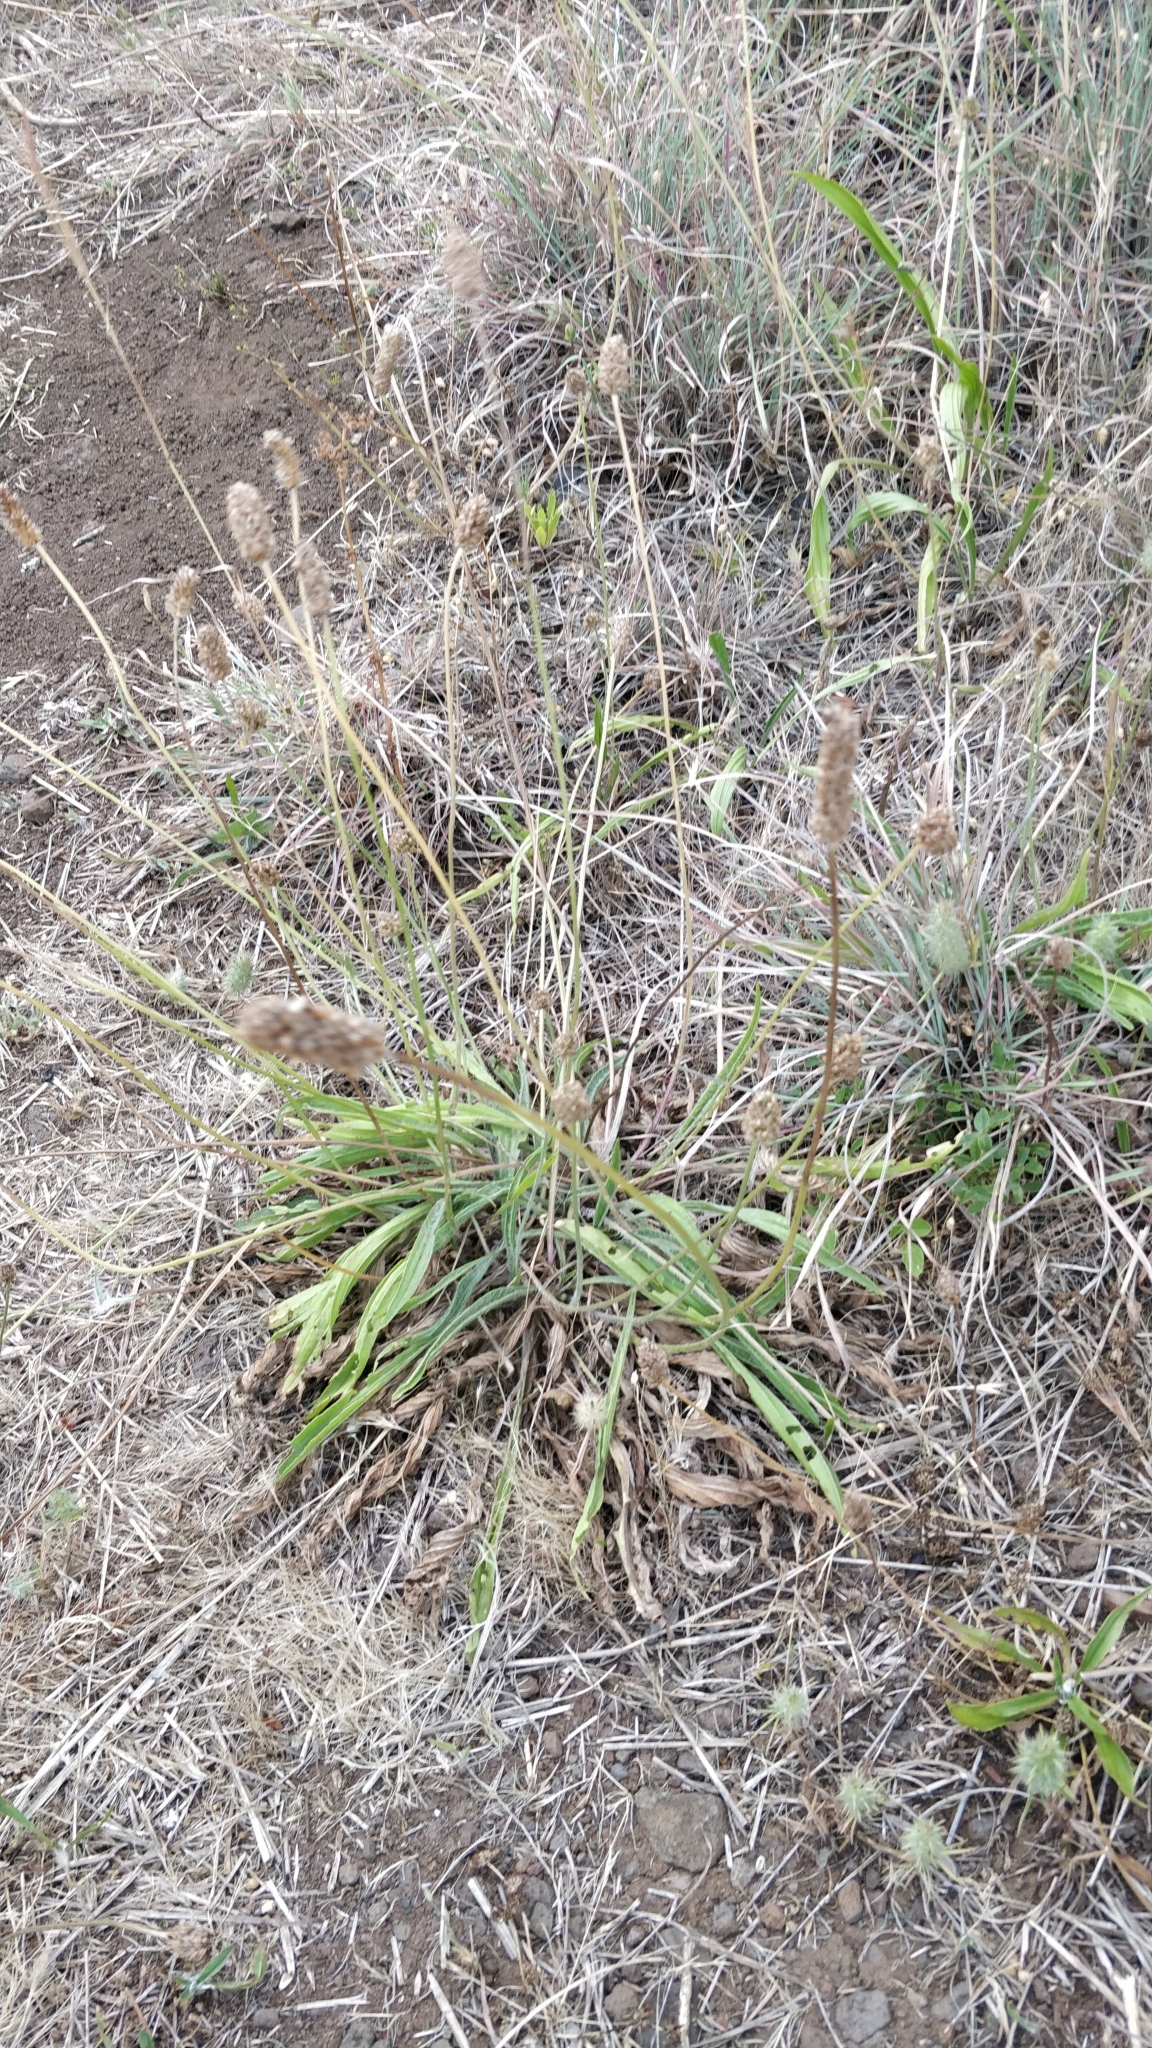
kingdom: Plantae
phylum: Tracheophyta
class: Magnoliopsida
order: Lamiales
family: Plantaginaceae
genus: Plantago
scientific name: Plantago lanceolata
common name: Ribwort plantain
